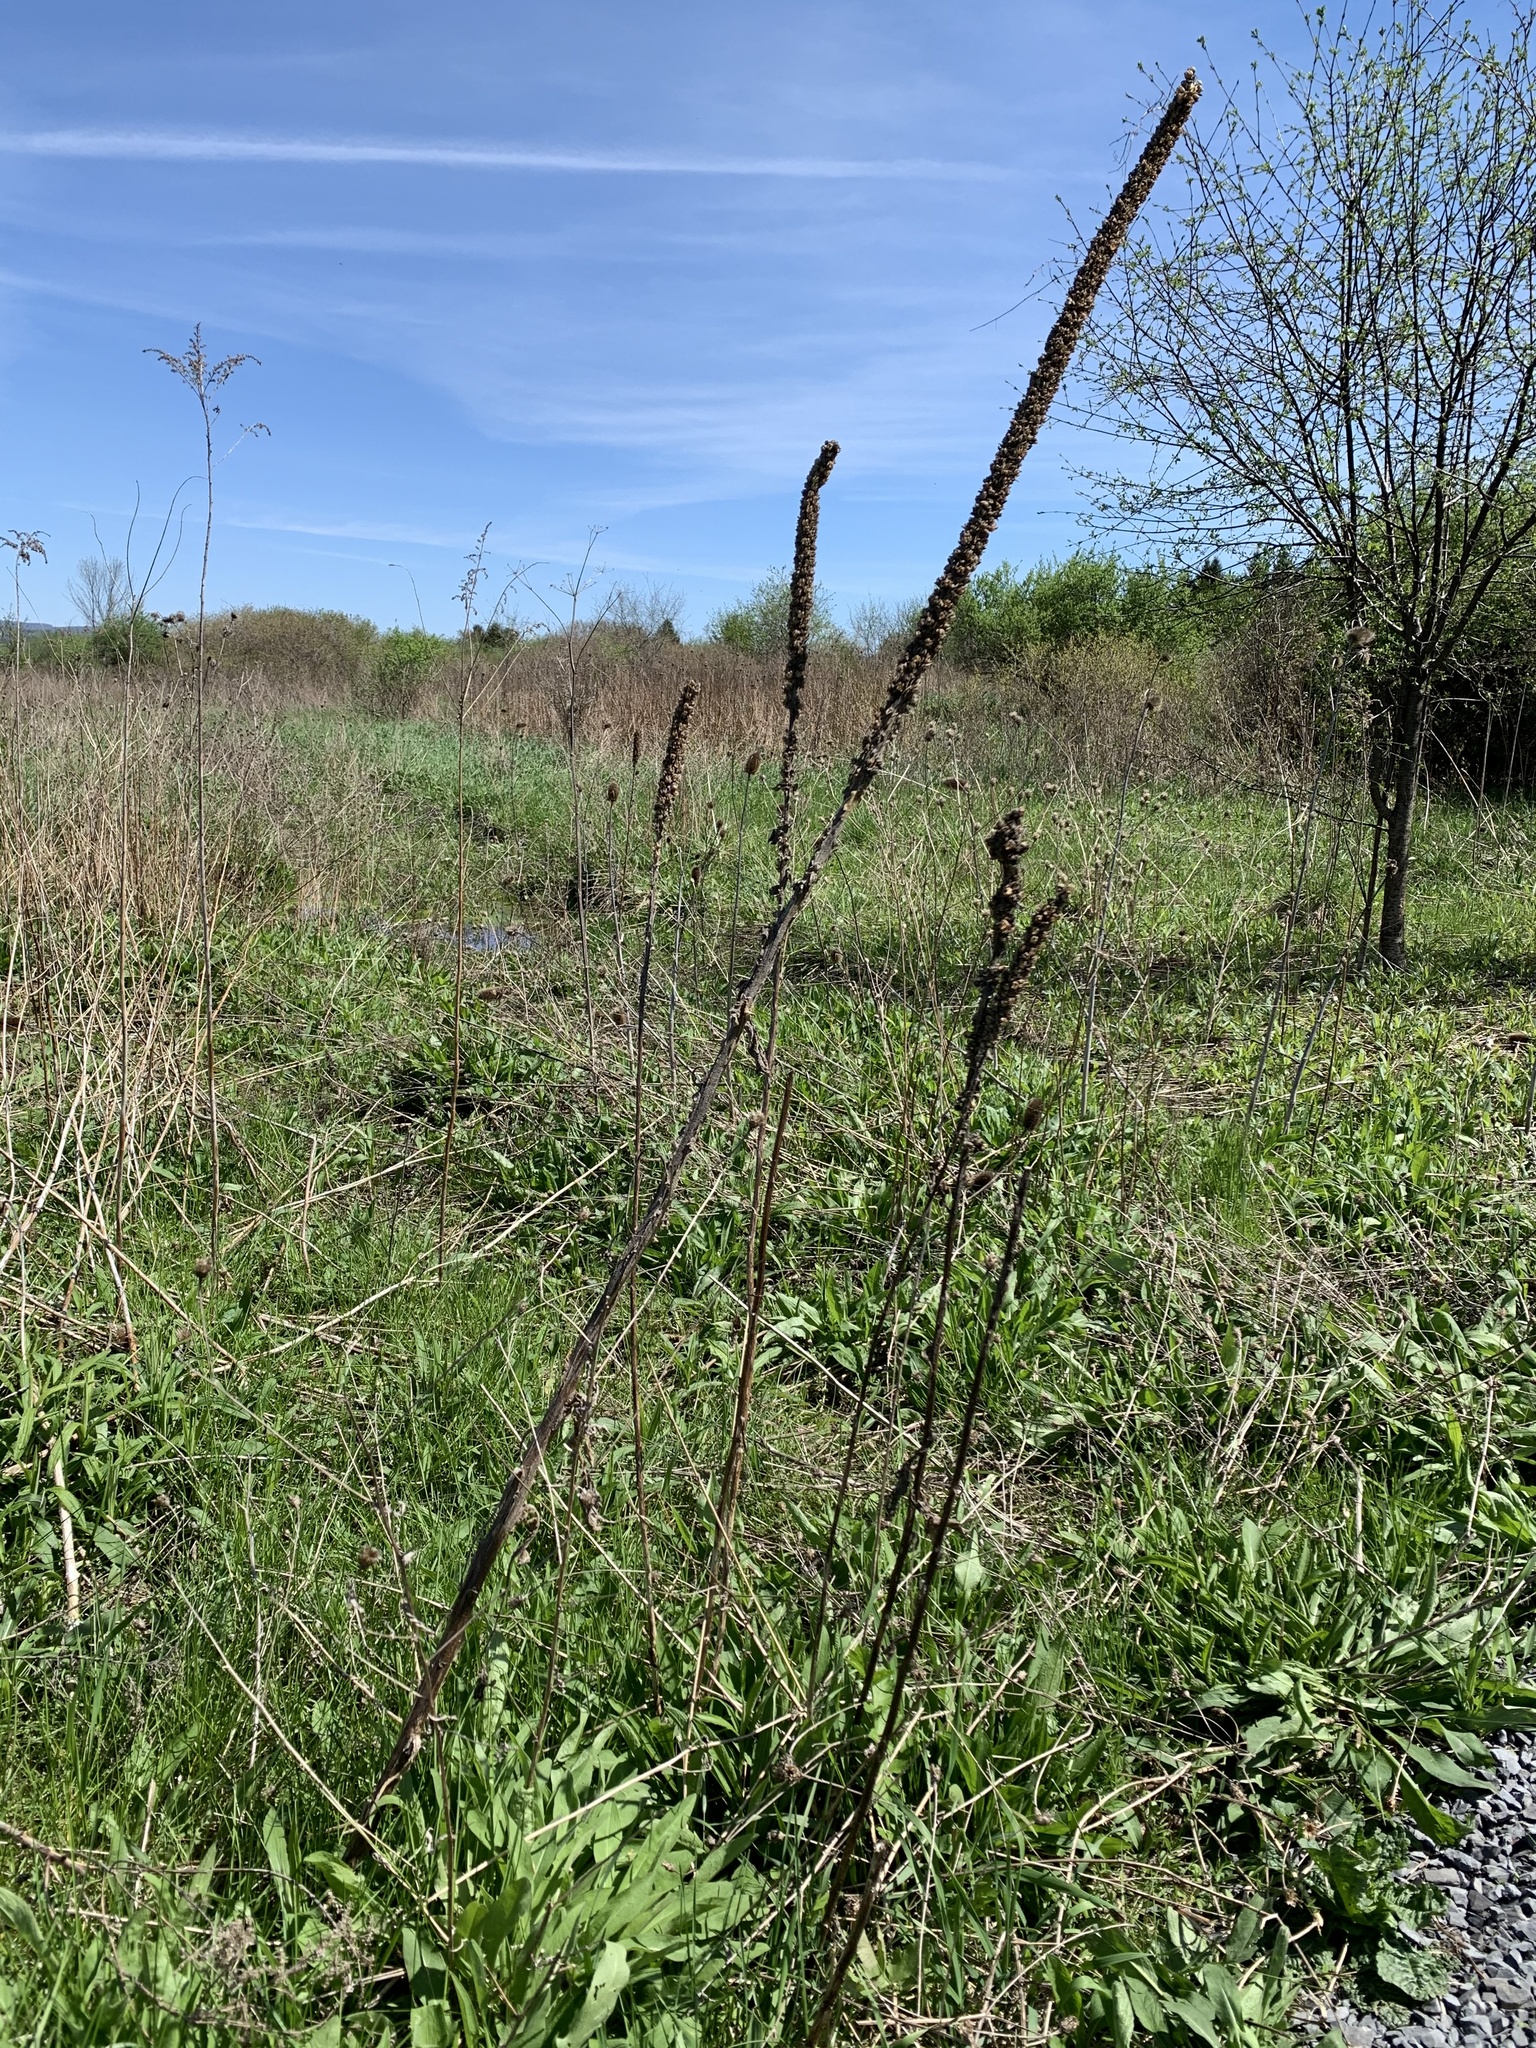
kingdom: Plantae
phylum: Tracheophyta
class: Magnoliopsida
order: Lamiales
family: Scrophulariaceae
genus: Verbascum
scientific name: Verbascum thapsus
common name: Common mullein
